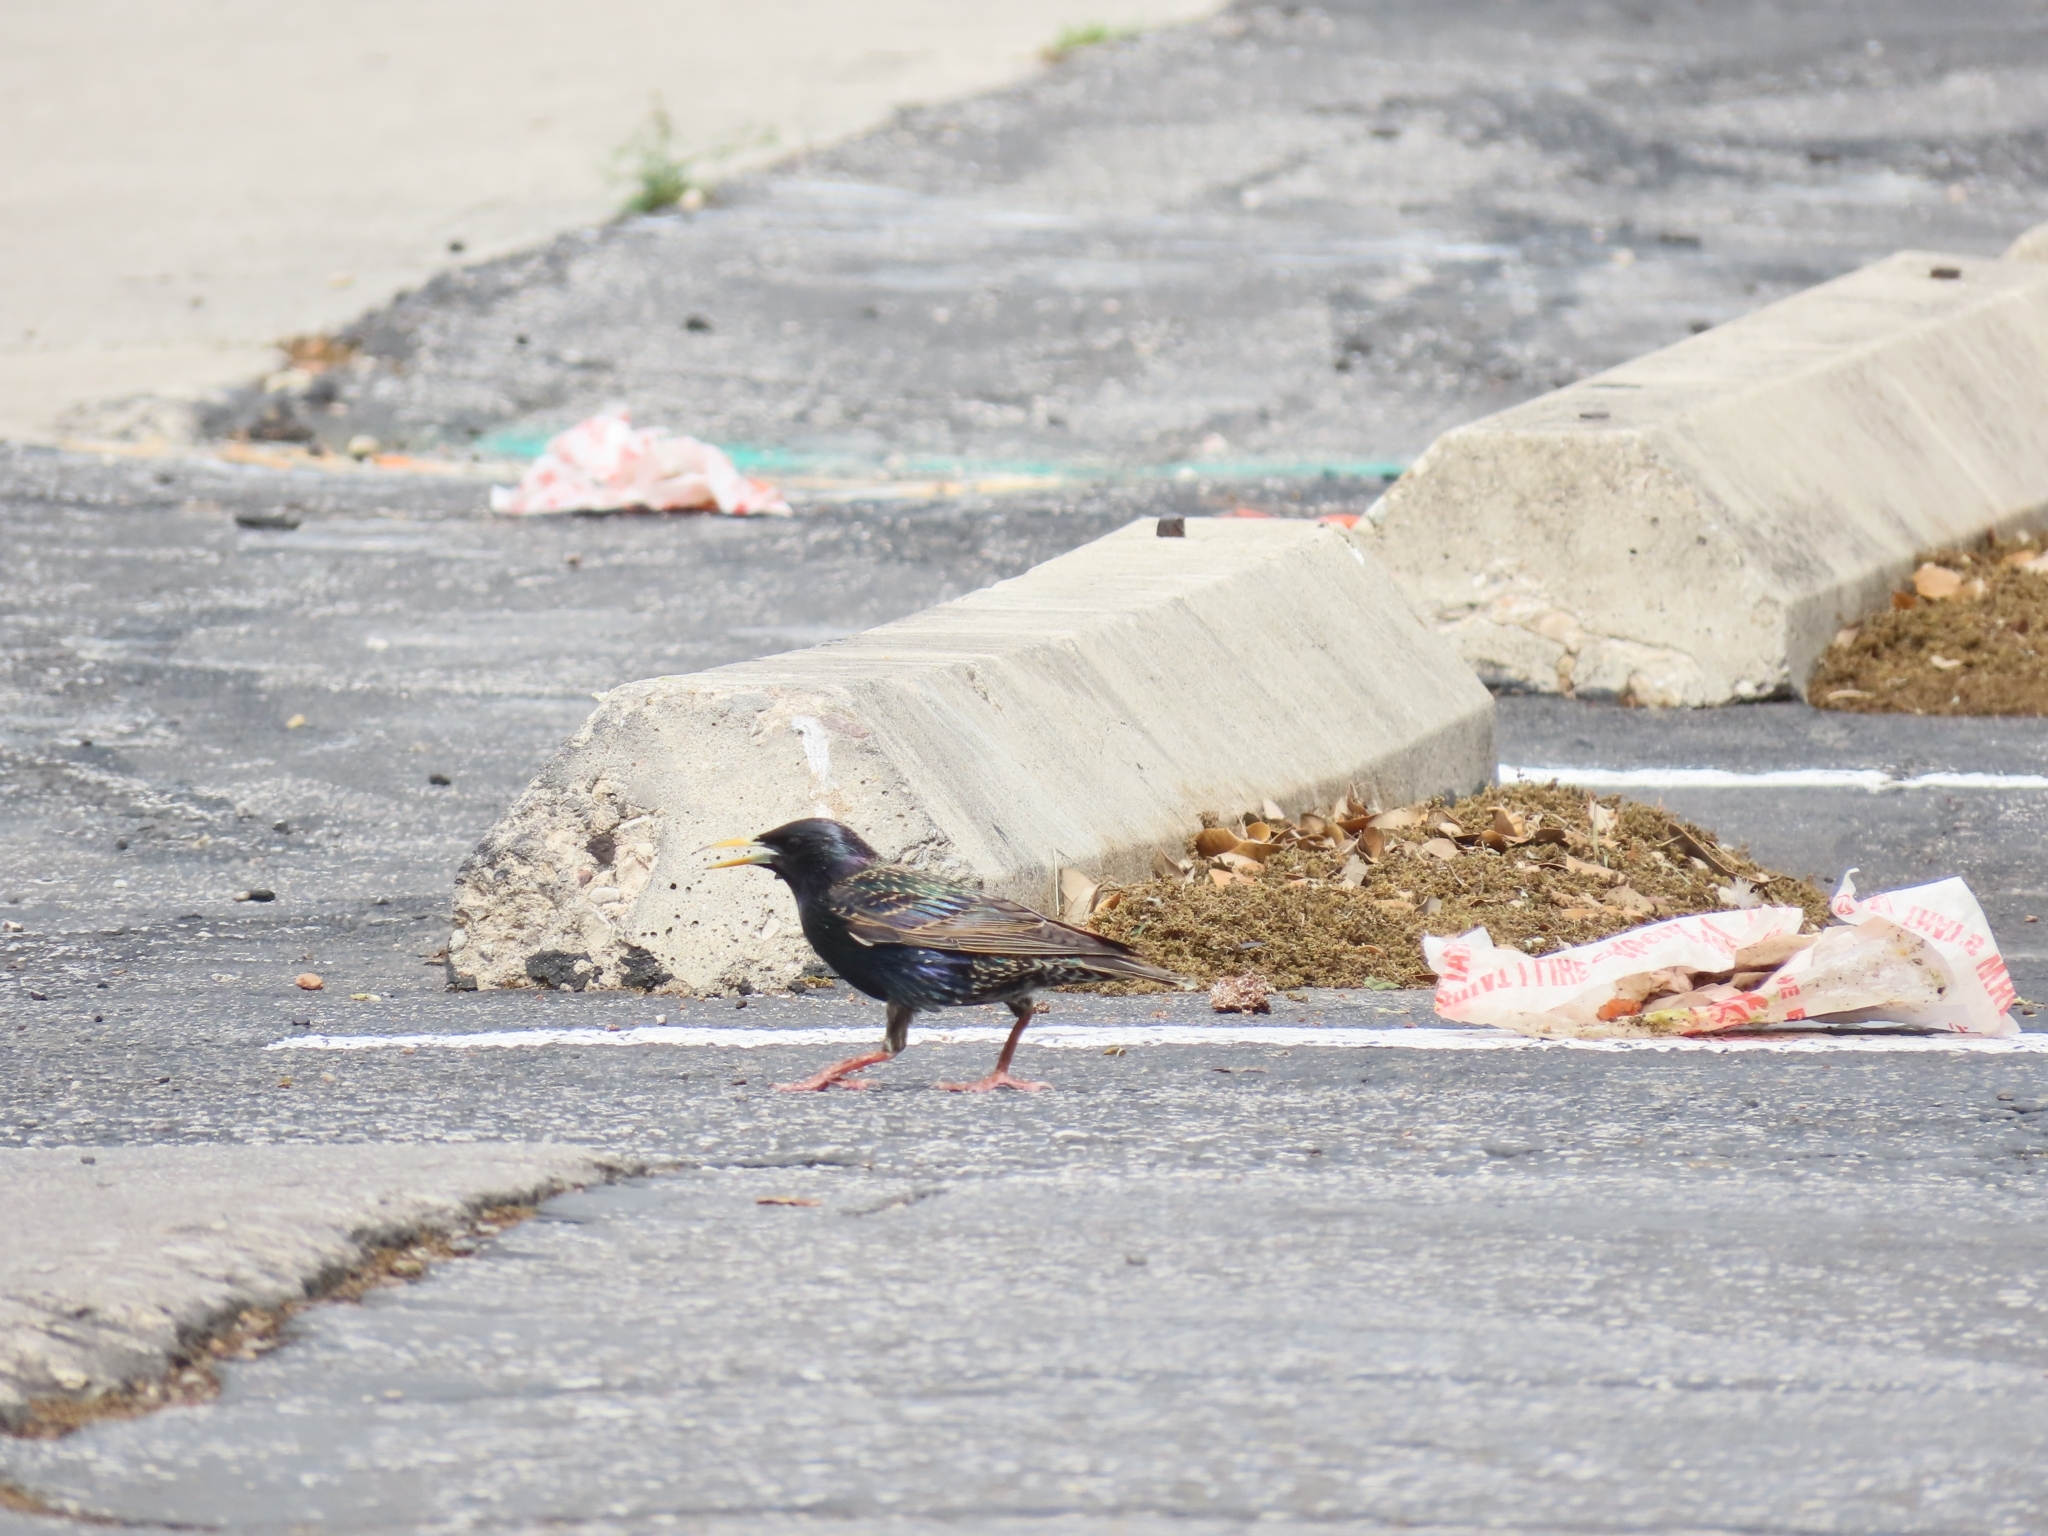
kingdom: Animalia
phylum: Chordata
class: Aves
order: Passeriformes
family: Sturnidae
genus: Sturnus
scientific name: Sturnus vulgaris
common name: Common starling
